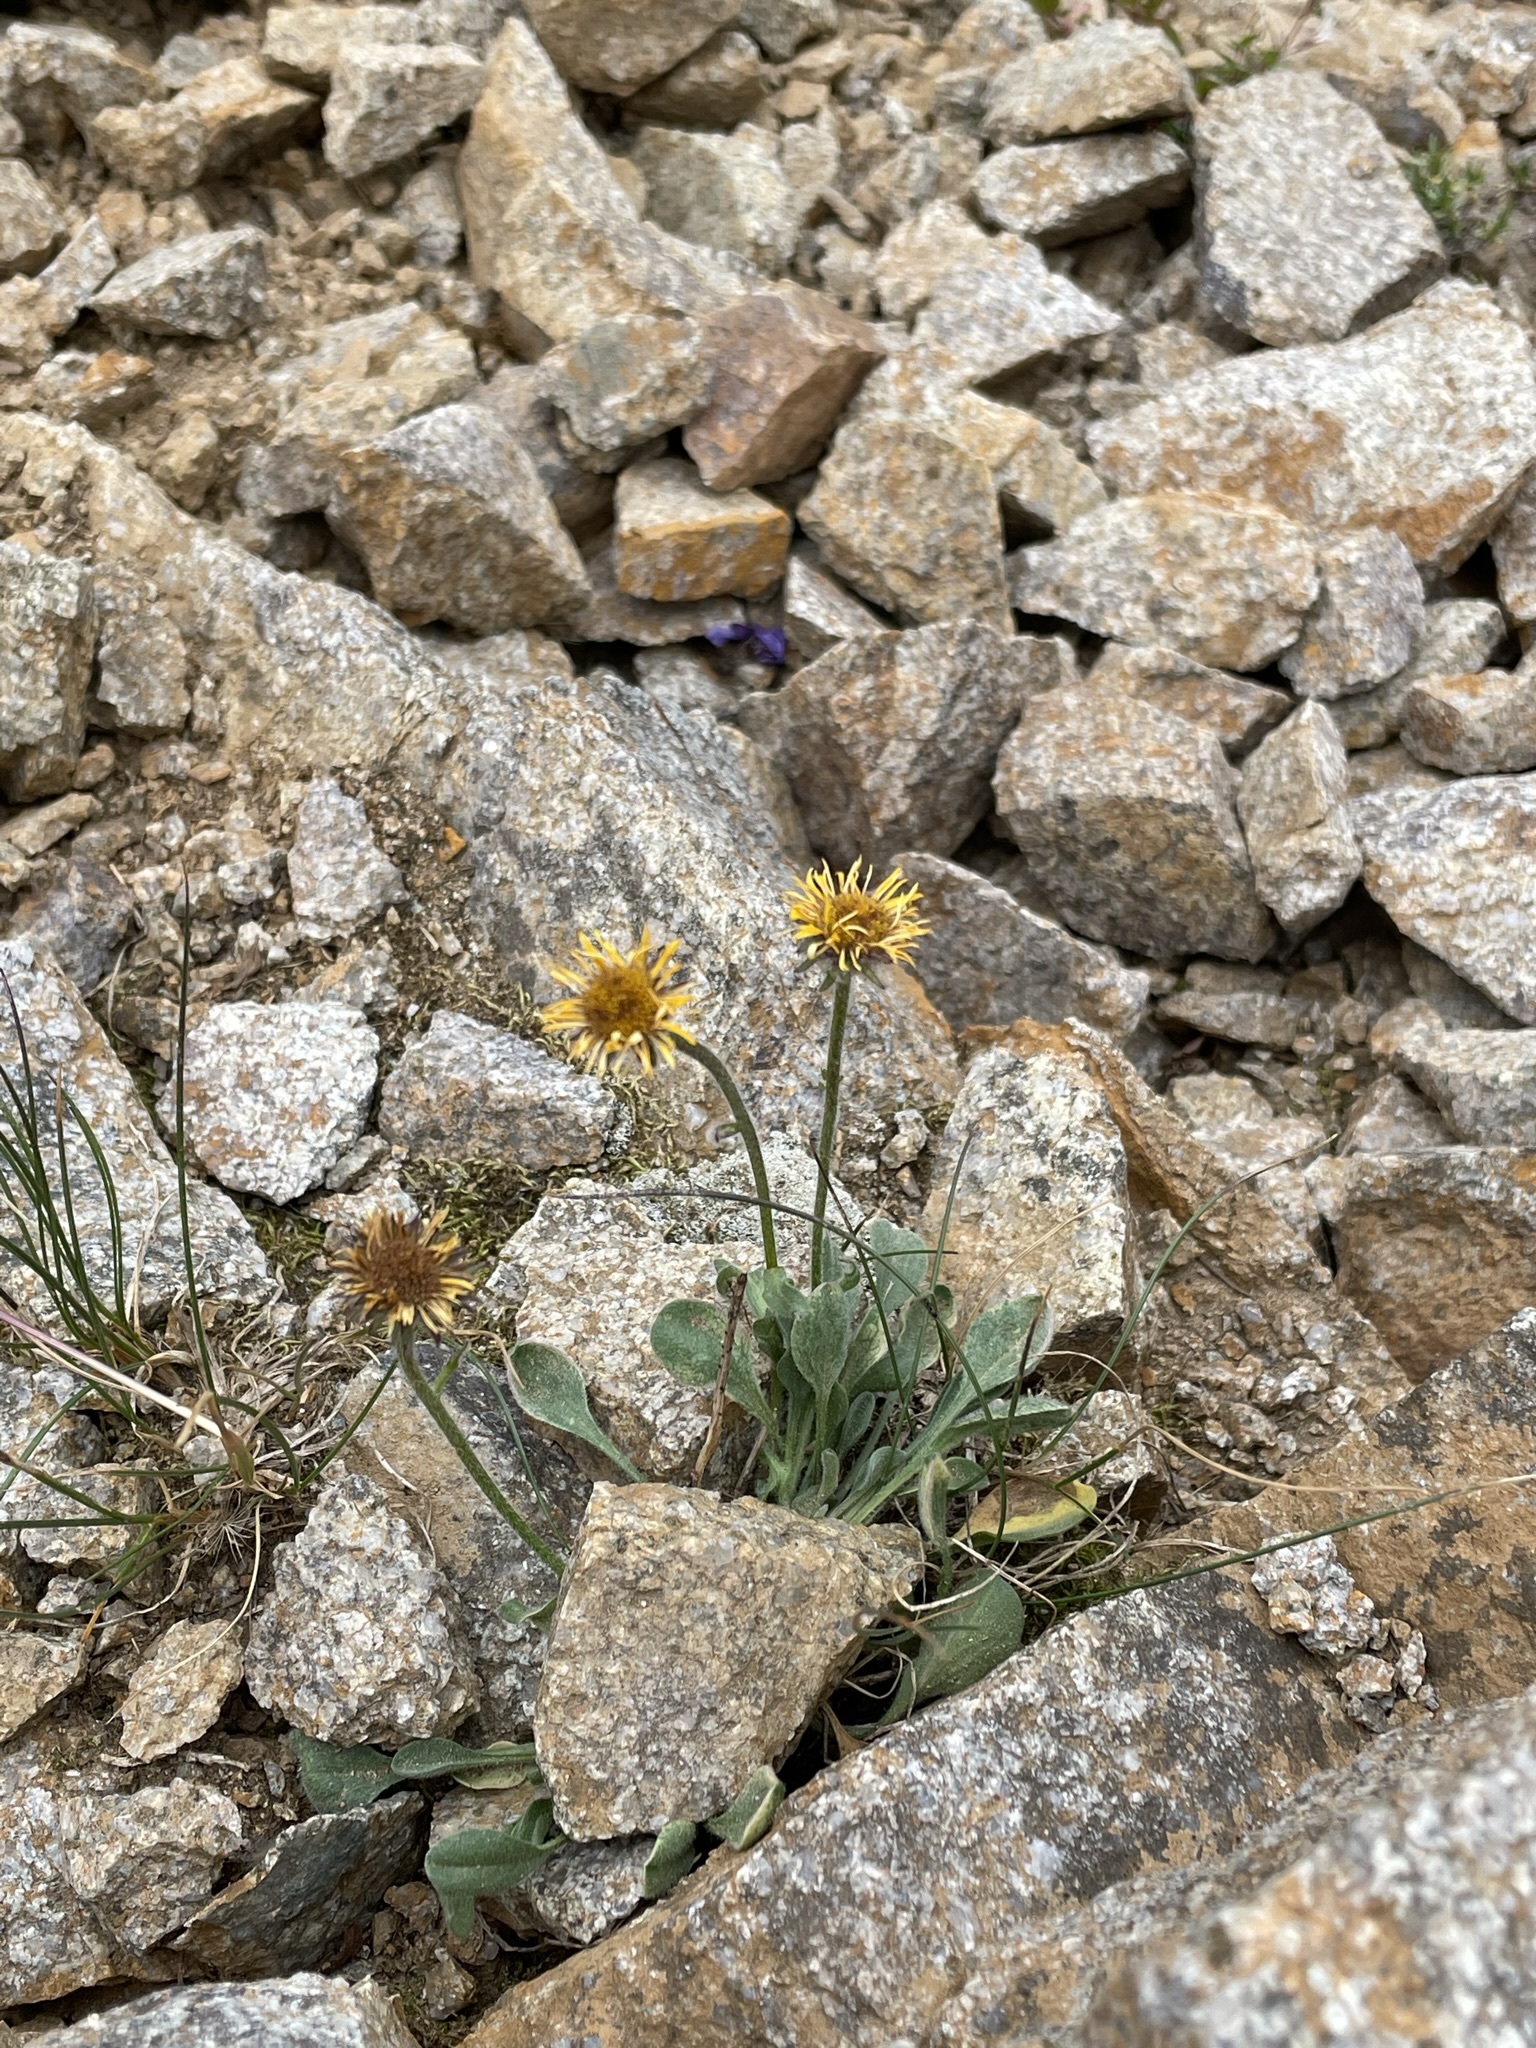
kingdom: Plantae
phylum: Tracheophyta
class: Magnoliopsida
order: Asterales
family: Asteraceae
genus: Erigeron
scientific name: Erigeron aureus
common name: Alpine yellow fleabane
